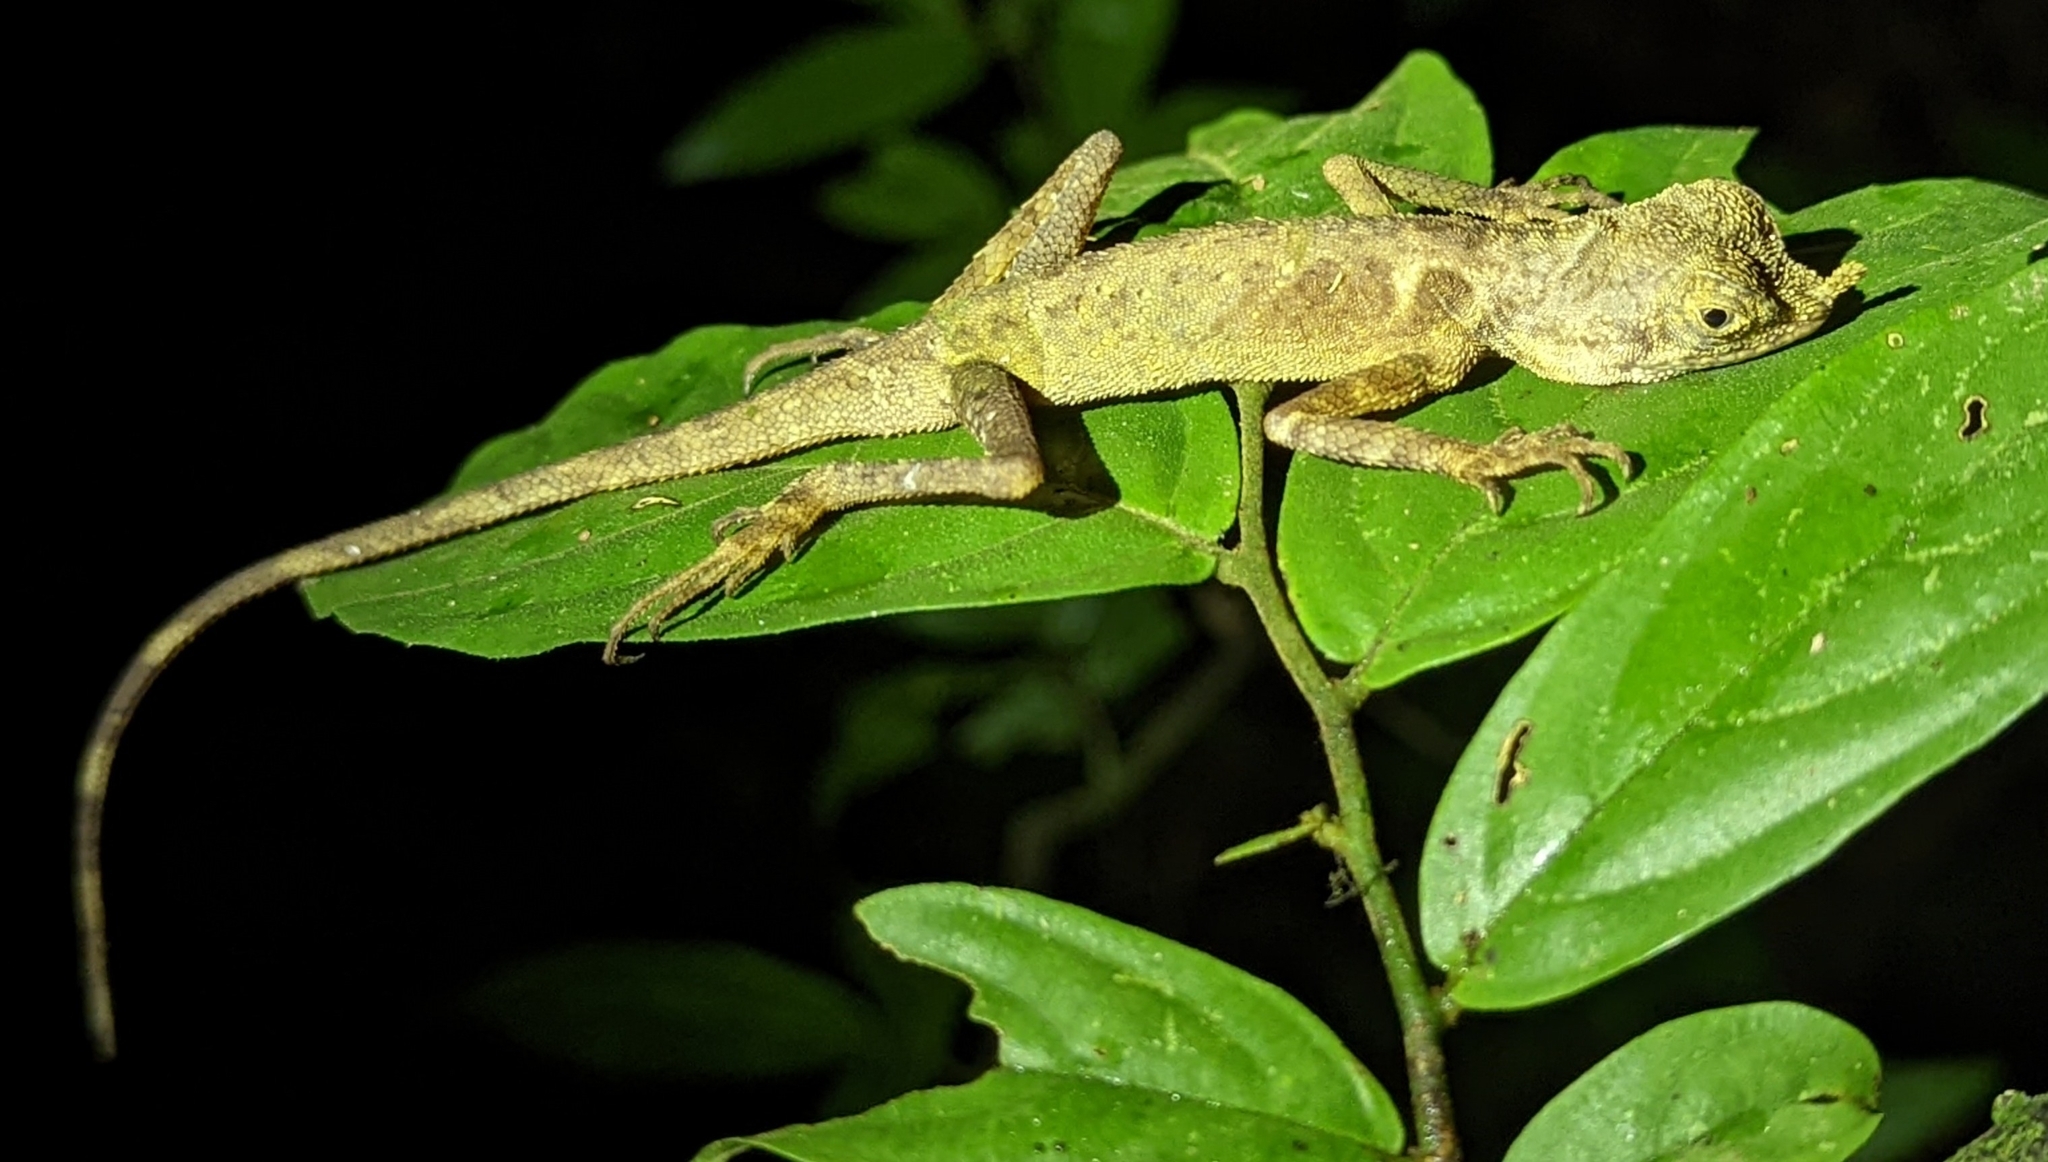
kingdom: Animalia
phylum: Chordata
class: Squamata
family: Agamidae
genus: Aphaniotis
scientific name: Aphaniotis ornata
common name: Ornate earless agama
